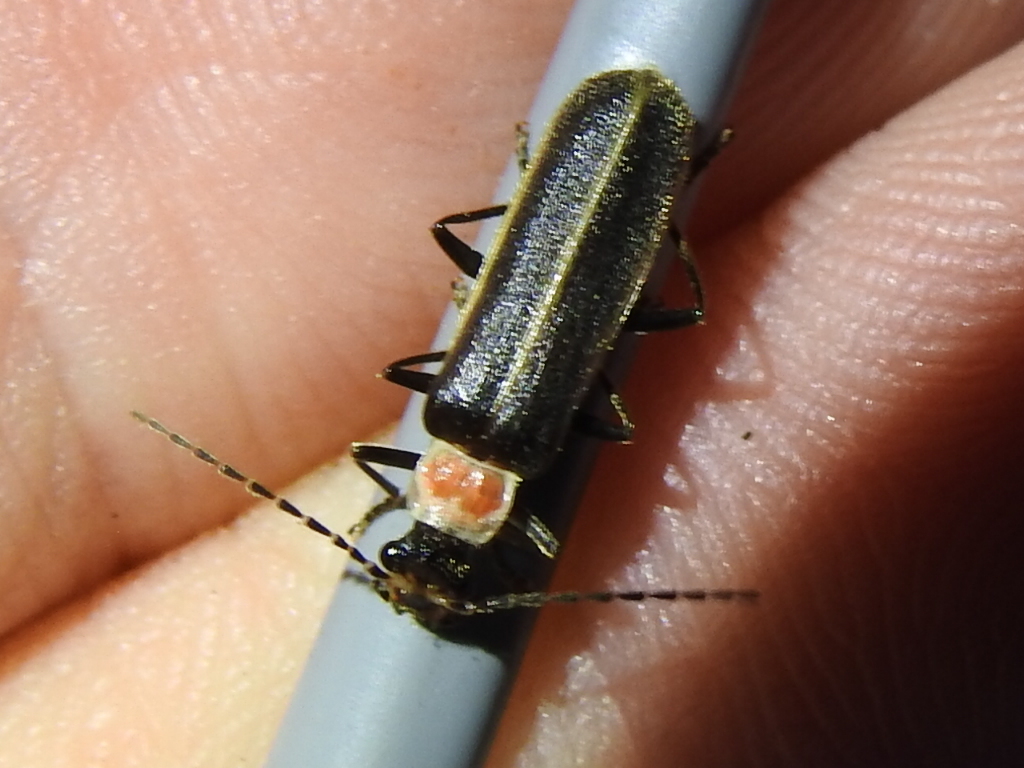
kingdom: Animalia
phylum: Arthropoda
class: Insecta
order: Coleoptera
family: Cantharidae
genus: Podabrus
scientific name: Podabrus quadratus
